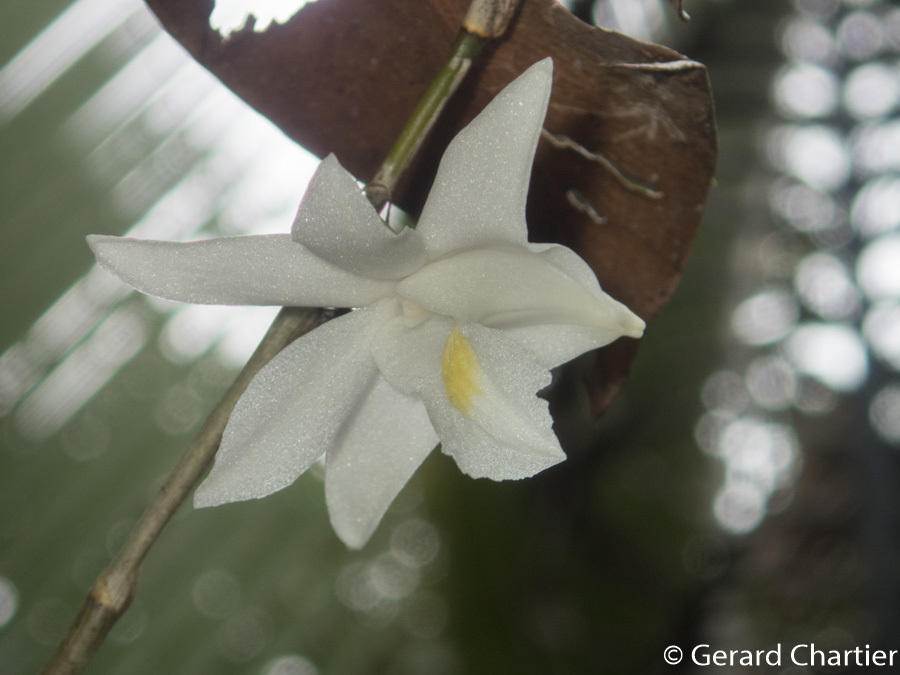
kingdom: Plantae
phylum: Tracheophyta
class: Liliopsida
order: Asparagales
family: Orchidaceae
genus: Dendrobium
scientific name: Dendrobium crumenatum
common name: Orchid
